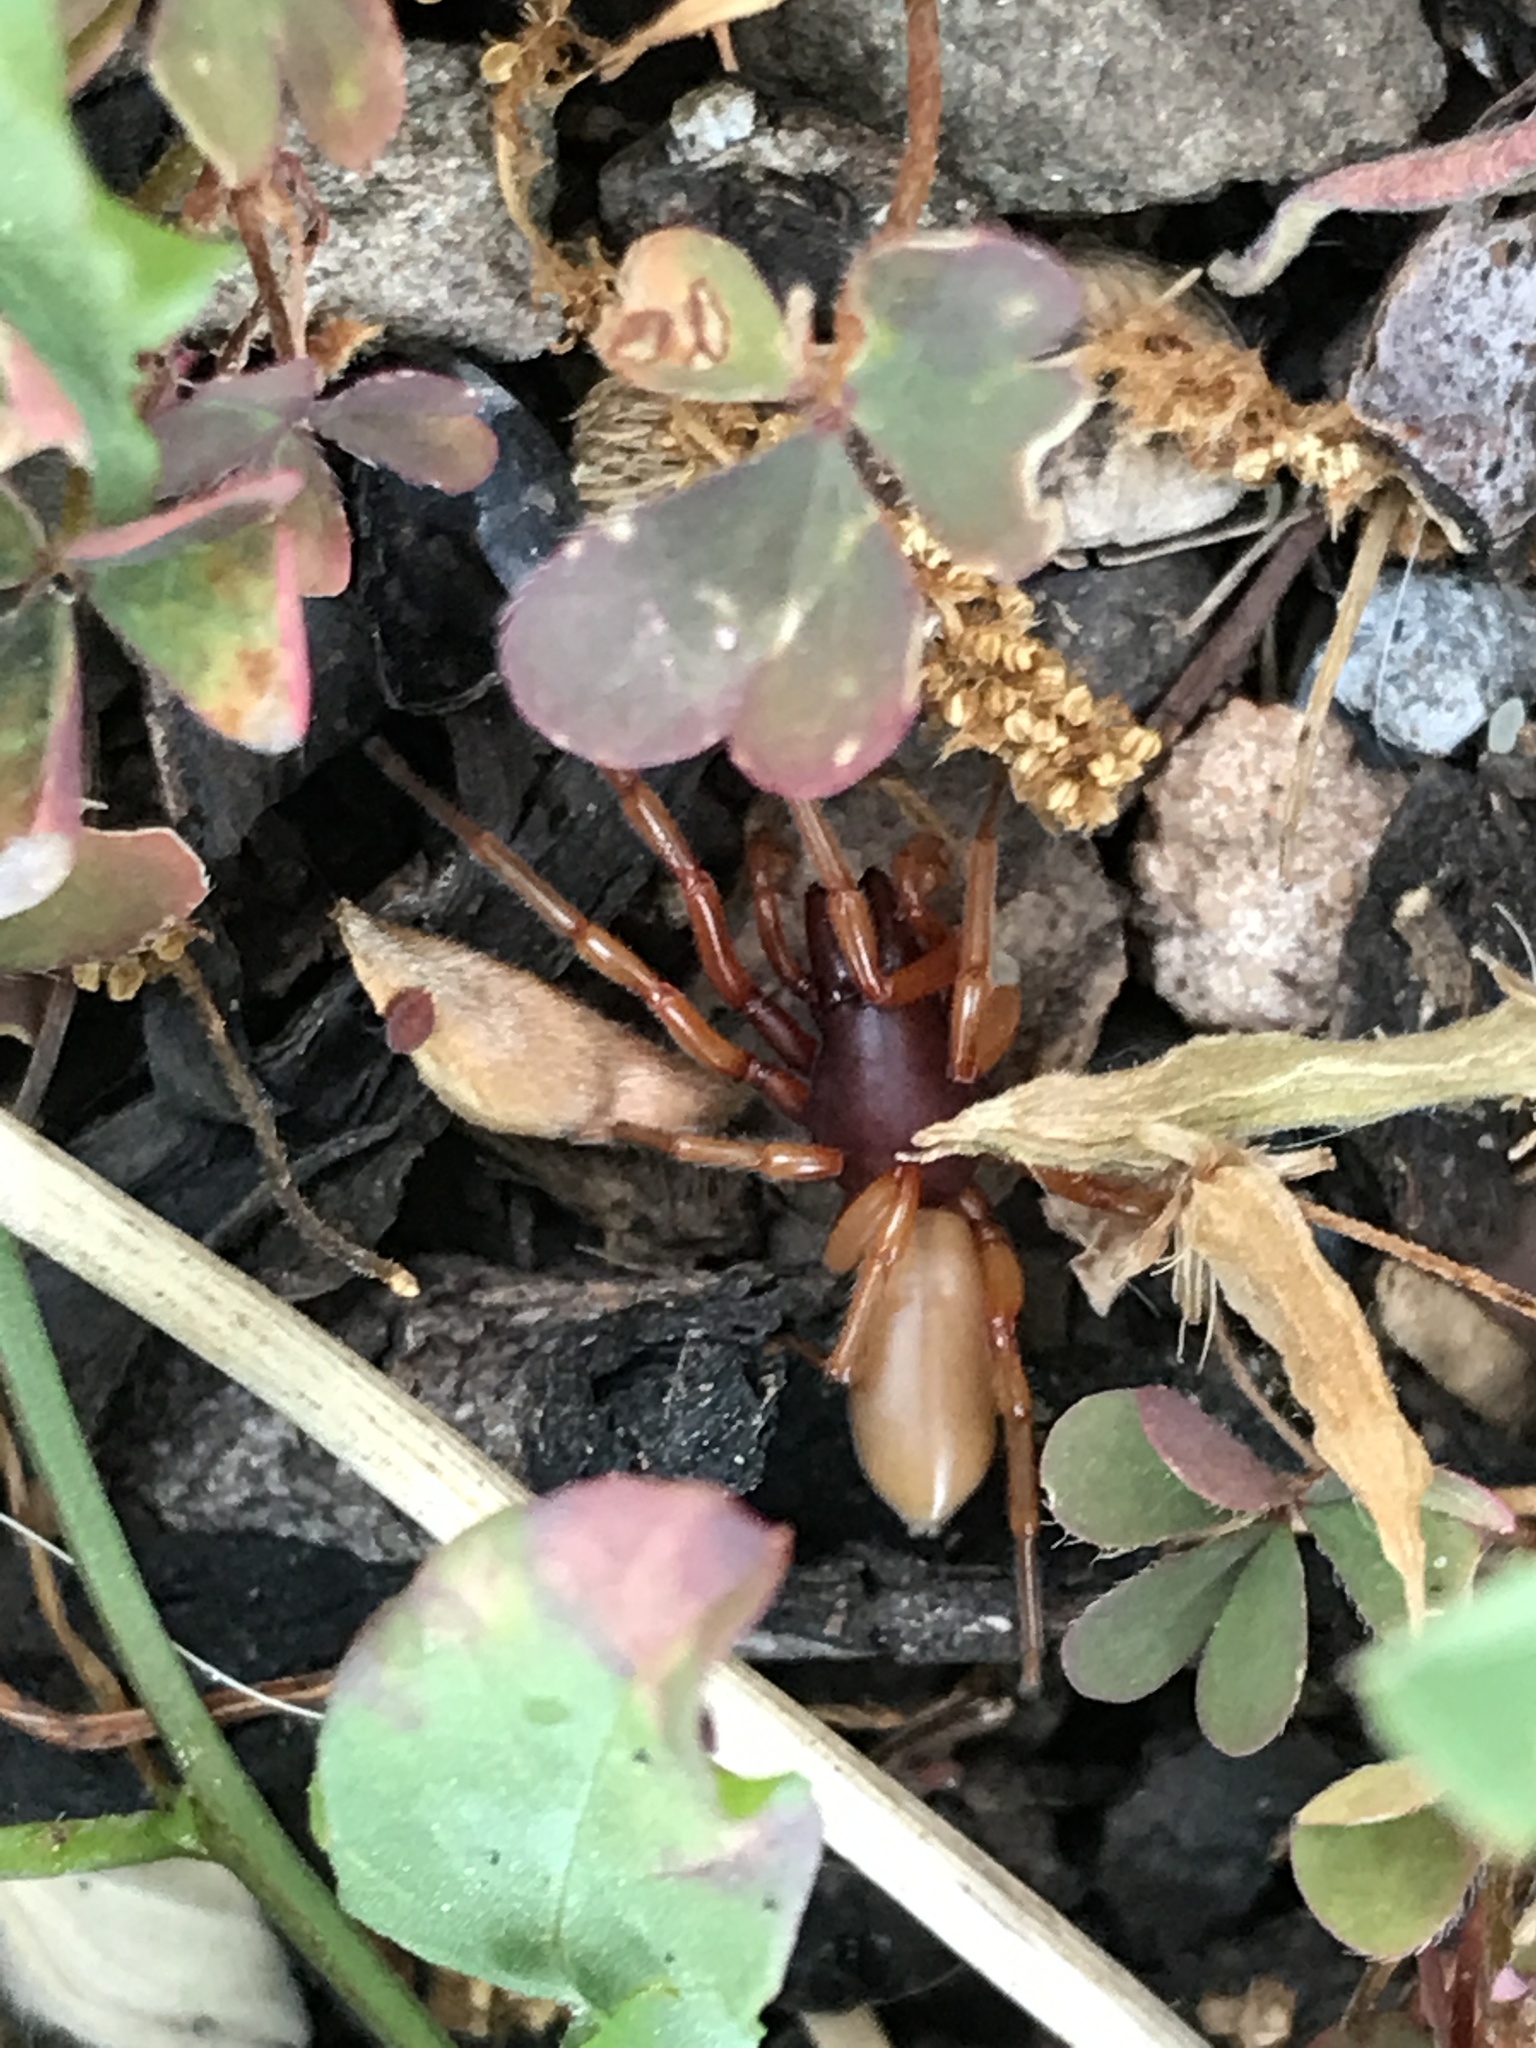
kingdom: Animalia
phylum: Arthropoda
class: Arachnida
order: Araneae
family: Dysderidae
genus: Dysdera
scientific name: Dysdera crocata
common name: Woodlouse spider
